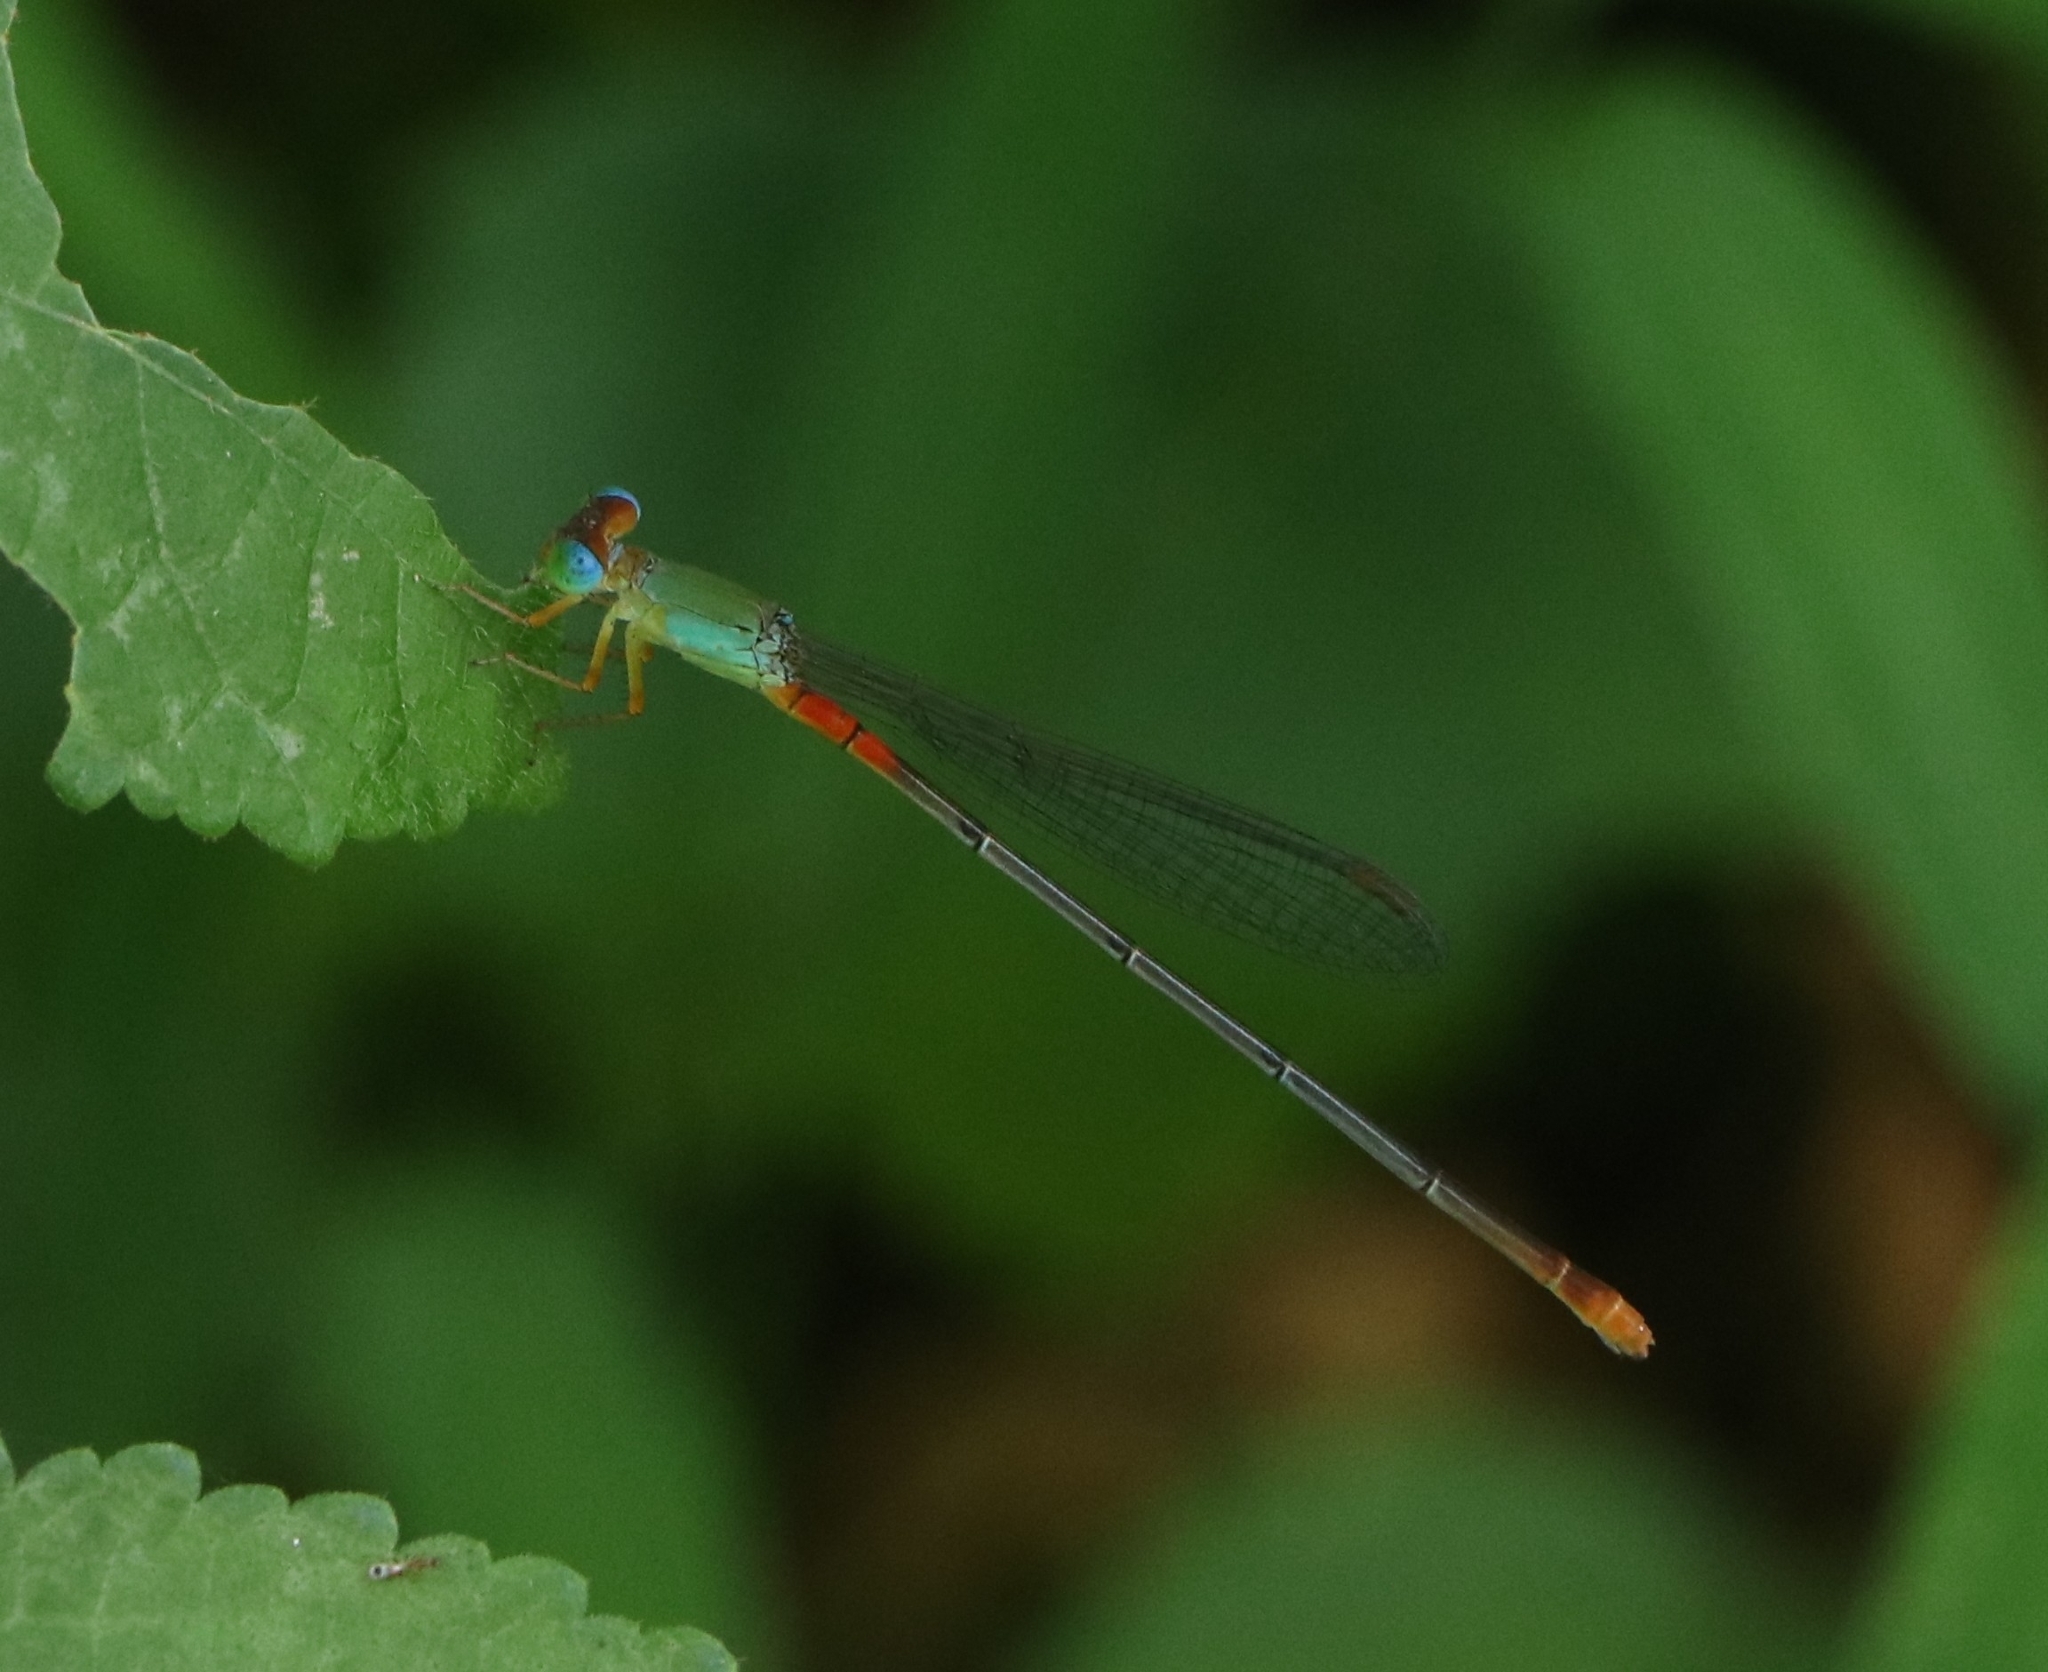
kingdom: Animalia
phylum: Arthropoda
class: Insecta
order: Odonata
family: Coenagrionidae
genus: Ceriagrion
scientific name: Ceriagrion cerinorubellum
